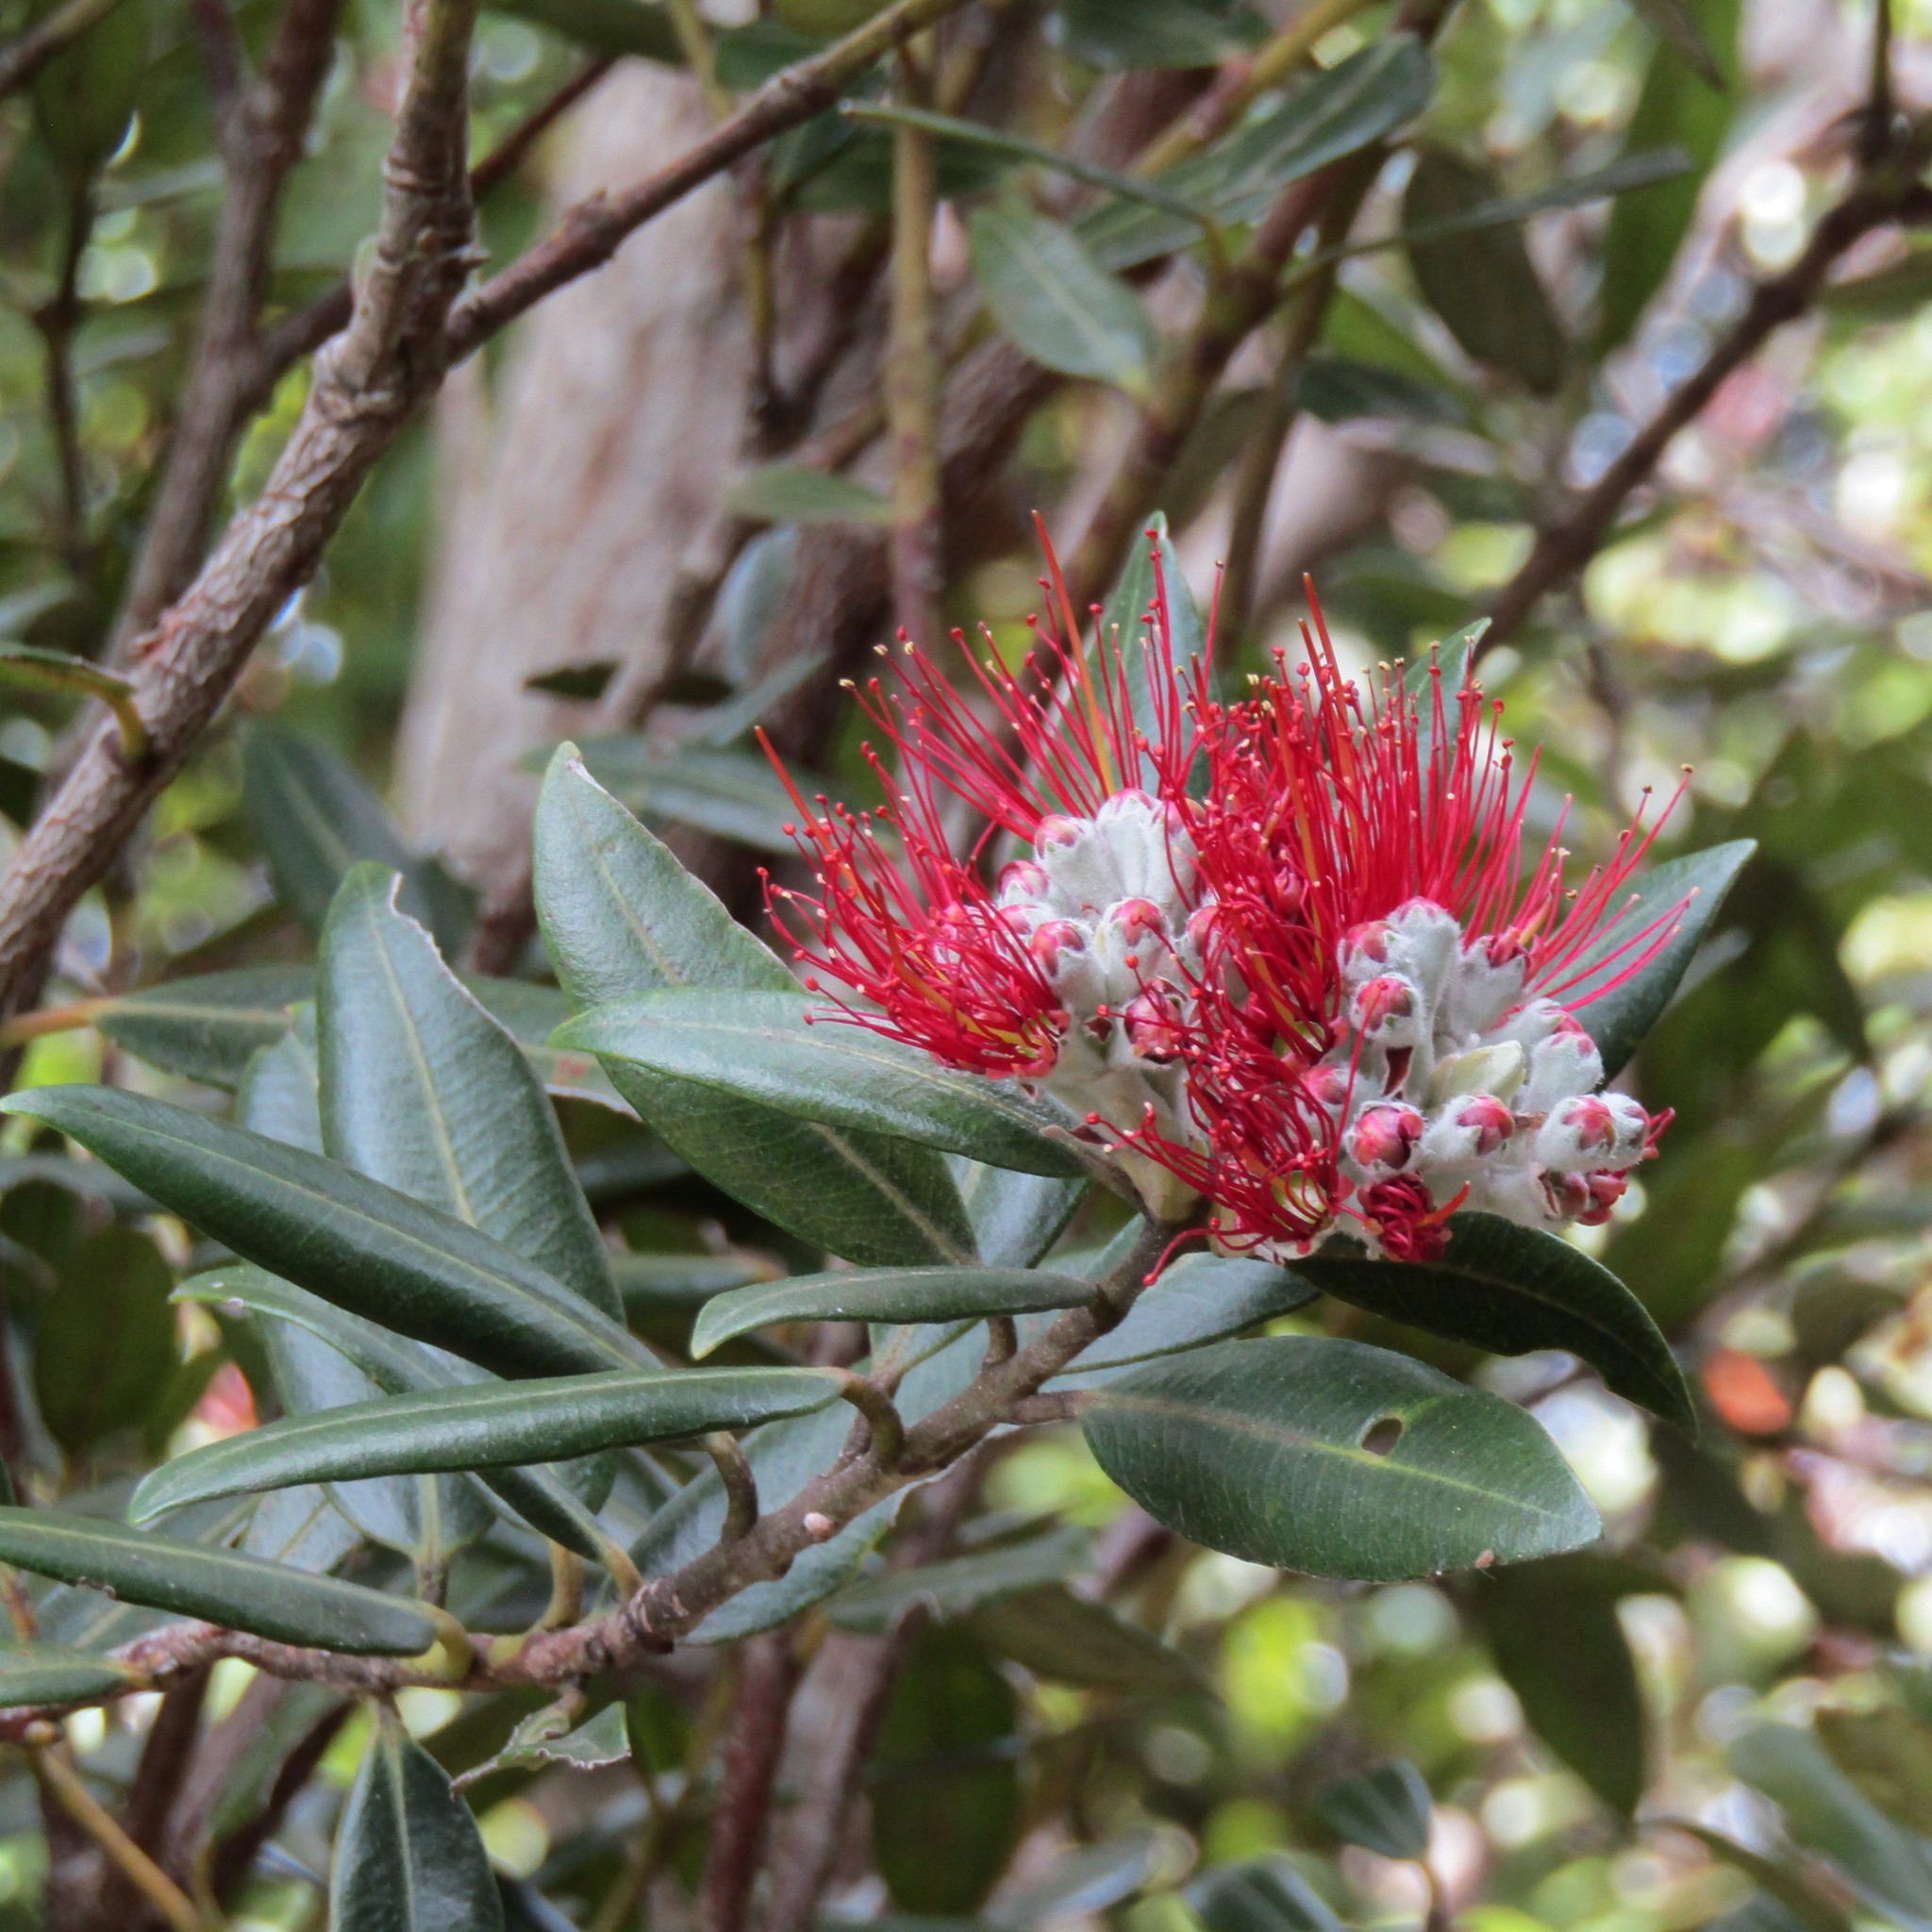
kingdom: Plantae
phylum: Tracheophyta
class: Magnoliopsida
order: Myrtales
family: Myrtaceae
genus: Metrosideros
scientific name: Metrosideros excelsa
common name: New zealand christmastree
